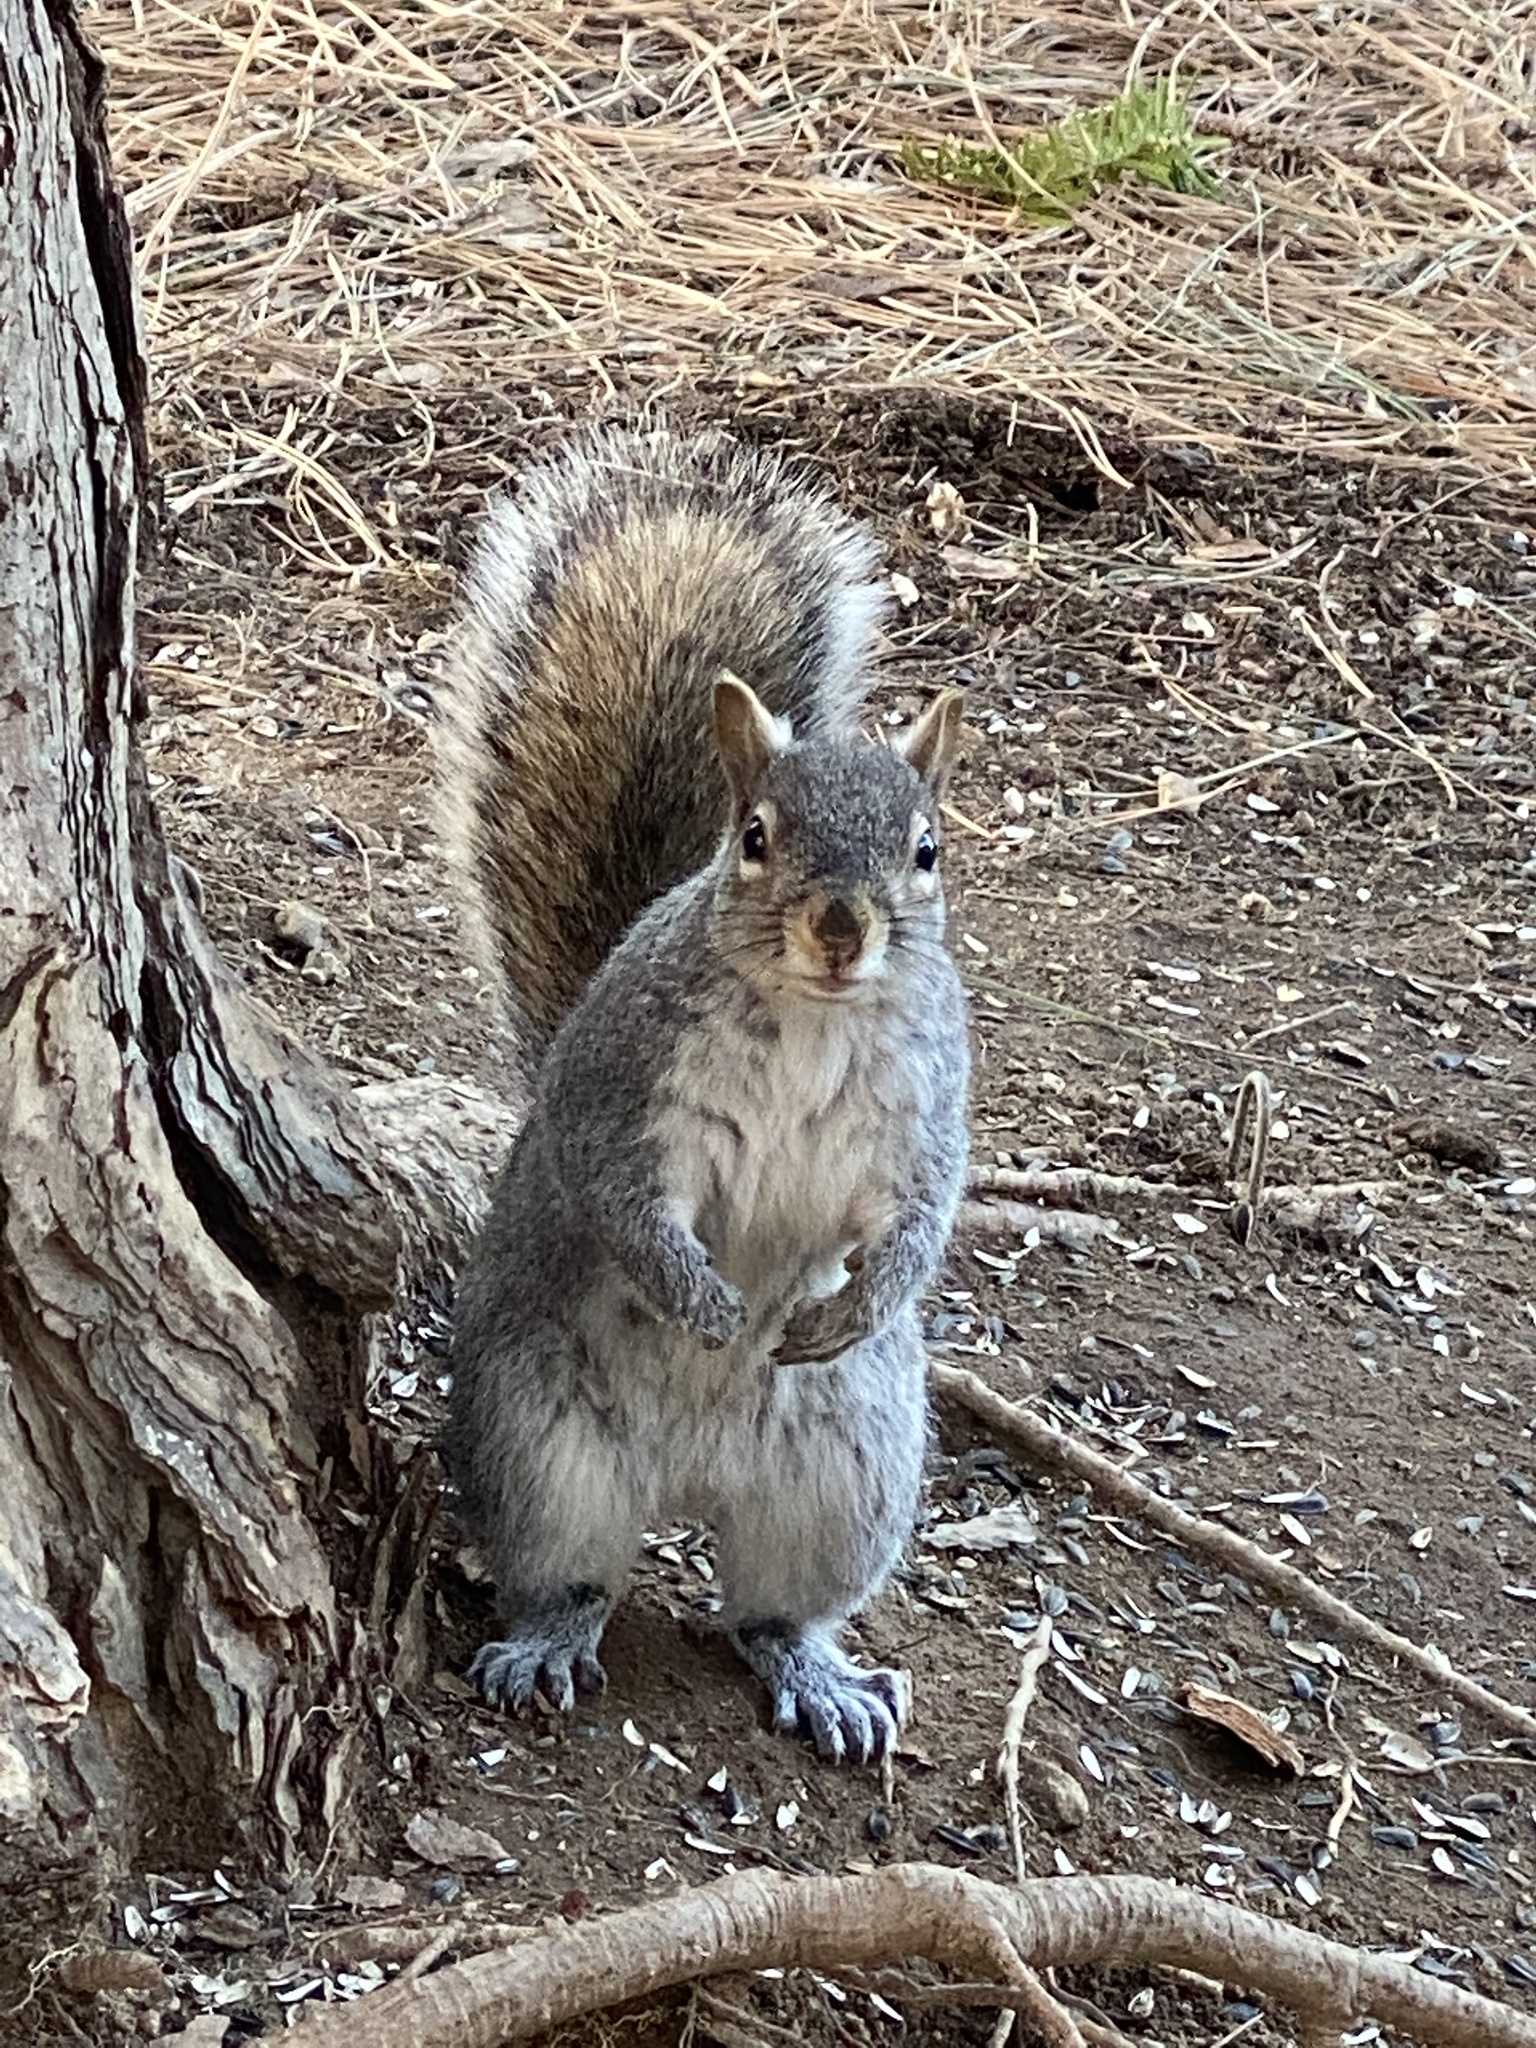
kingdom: Animalia
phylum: Chordata
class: Mammalia
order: Rodentia
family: Sciuridae
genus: Sciurus
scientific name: Sciurus carolinensis
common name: Eastern gray squirrel
